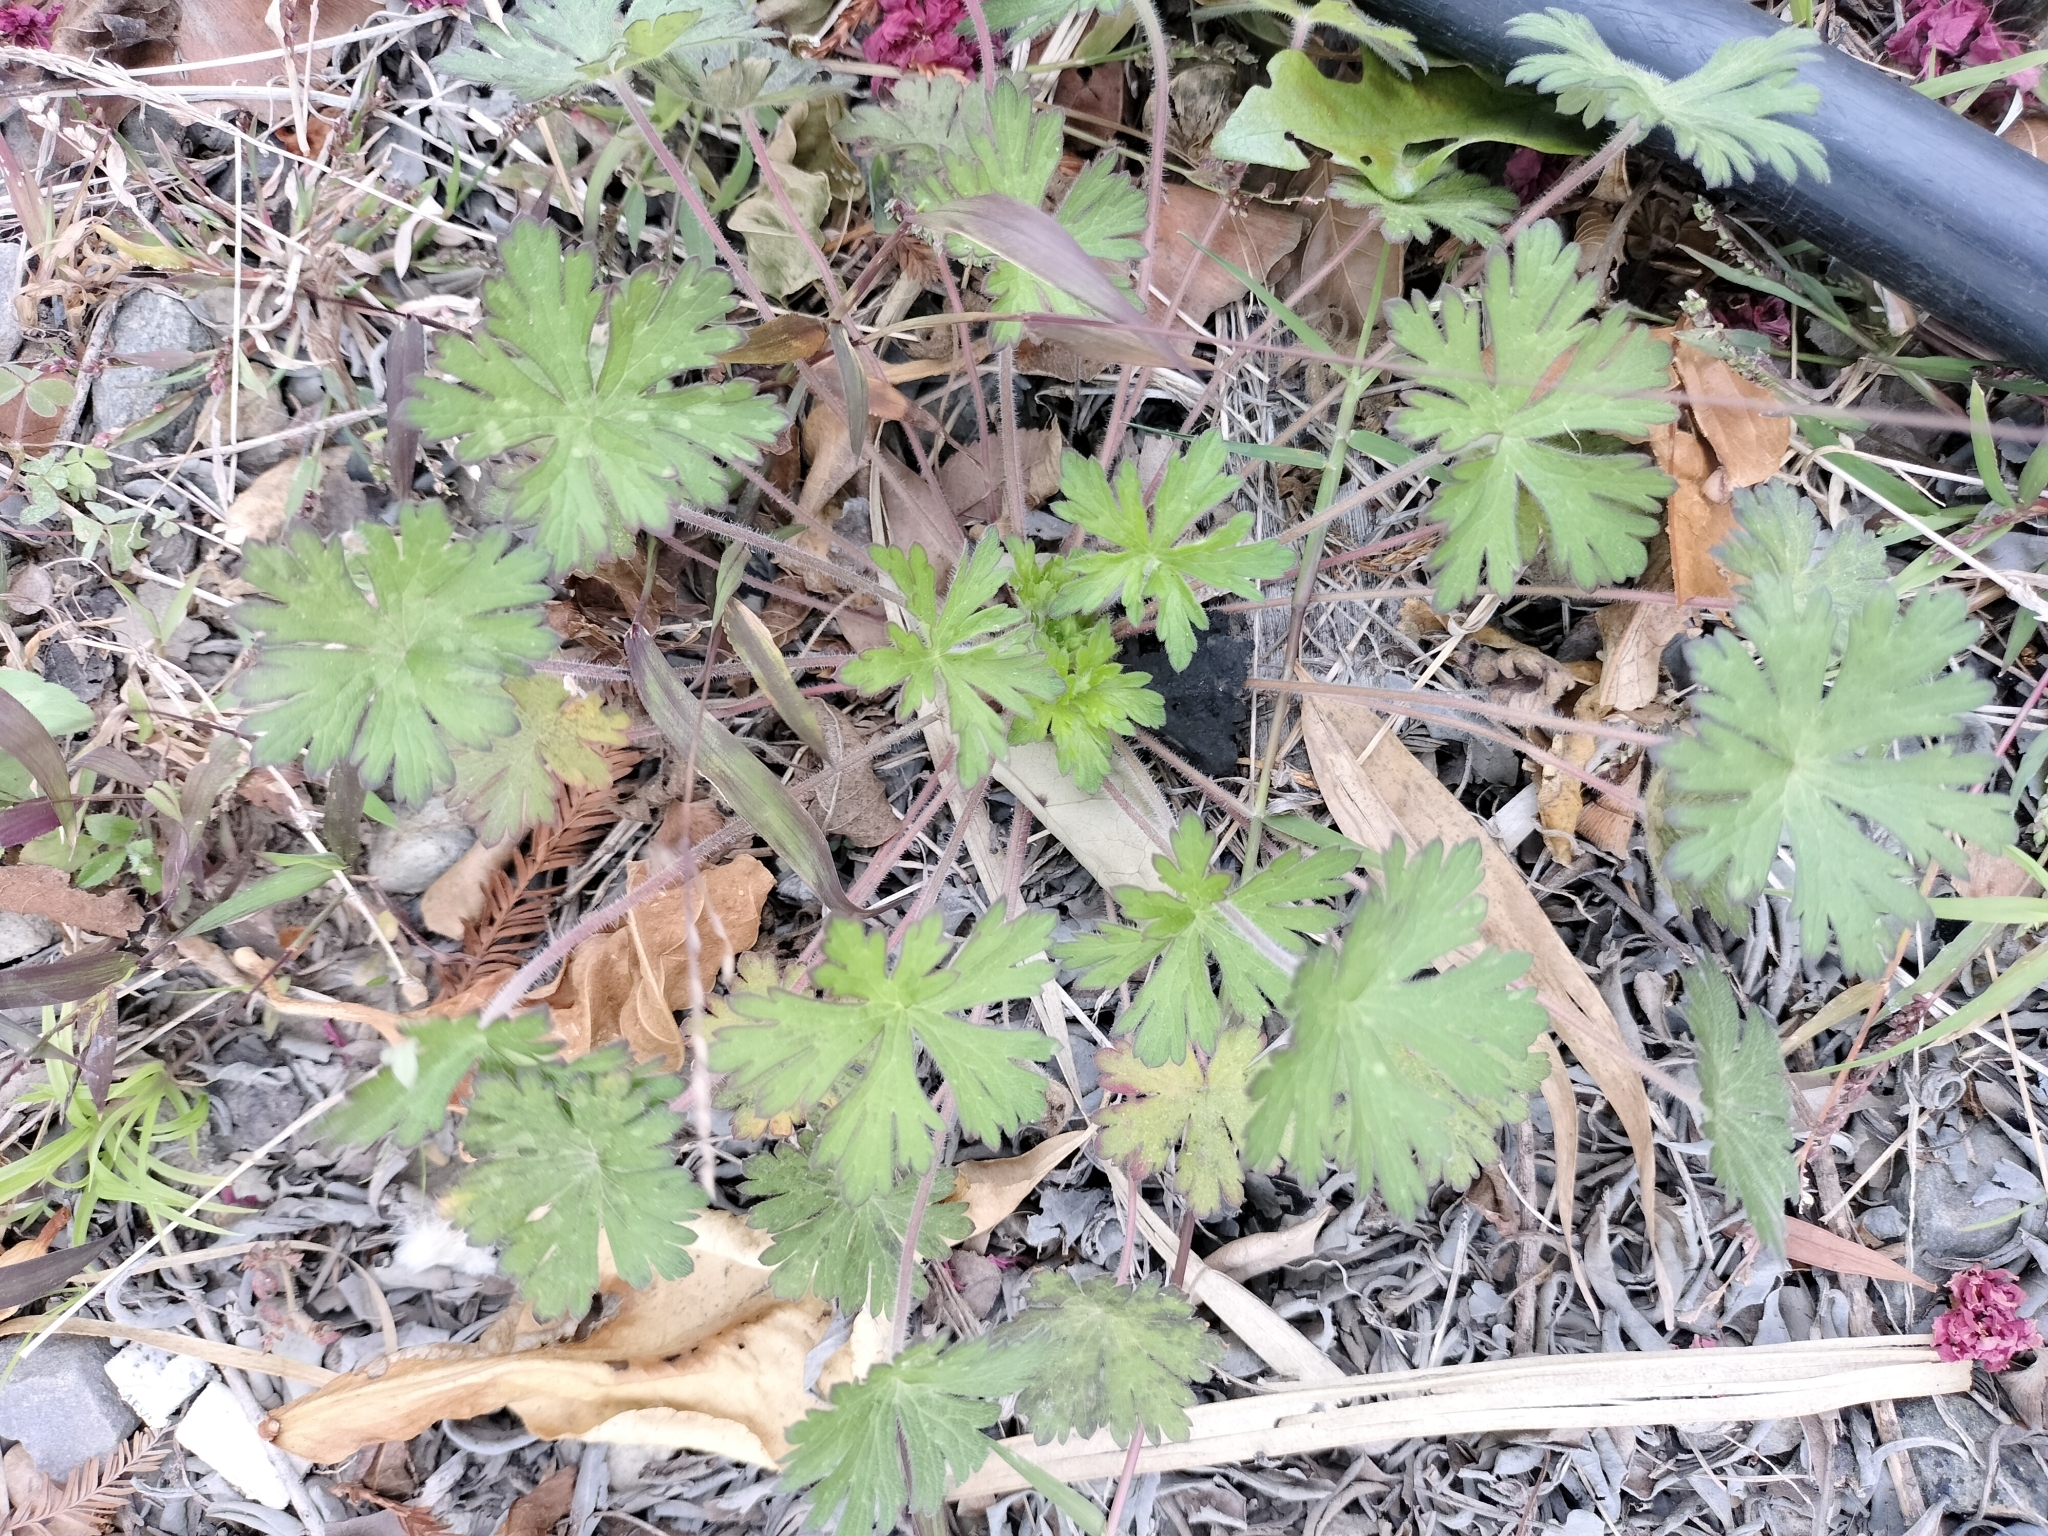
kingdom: Plantae
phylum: Tracheophyta
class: Magnoliopsida
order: Geraniales
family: Geraniaceae
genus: Geranium
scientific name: Geranium carolinianum
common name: Carolina crane's-bill
